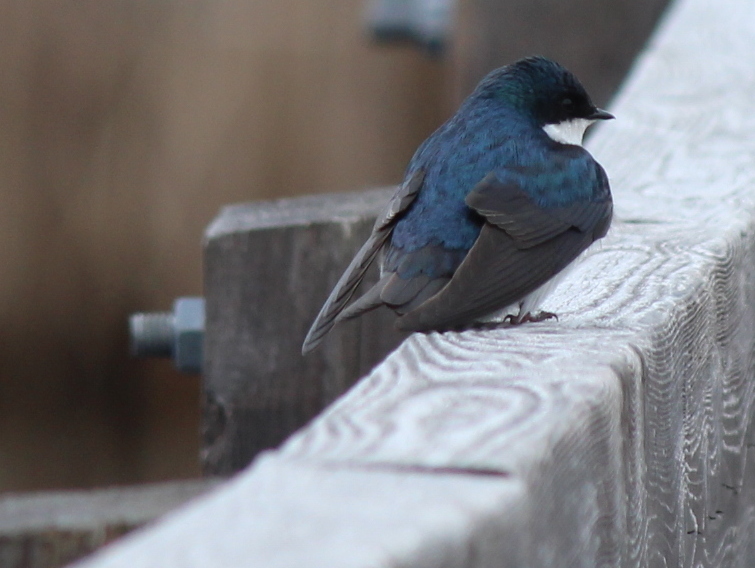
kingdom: Animalia
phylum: Chordata
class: Aves
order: Passeriformes
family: Hirundinidae
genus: Tachycineta
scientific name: Tachycineta bicolor
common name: Tree swallow
